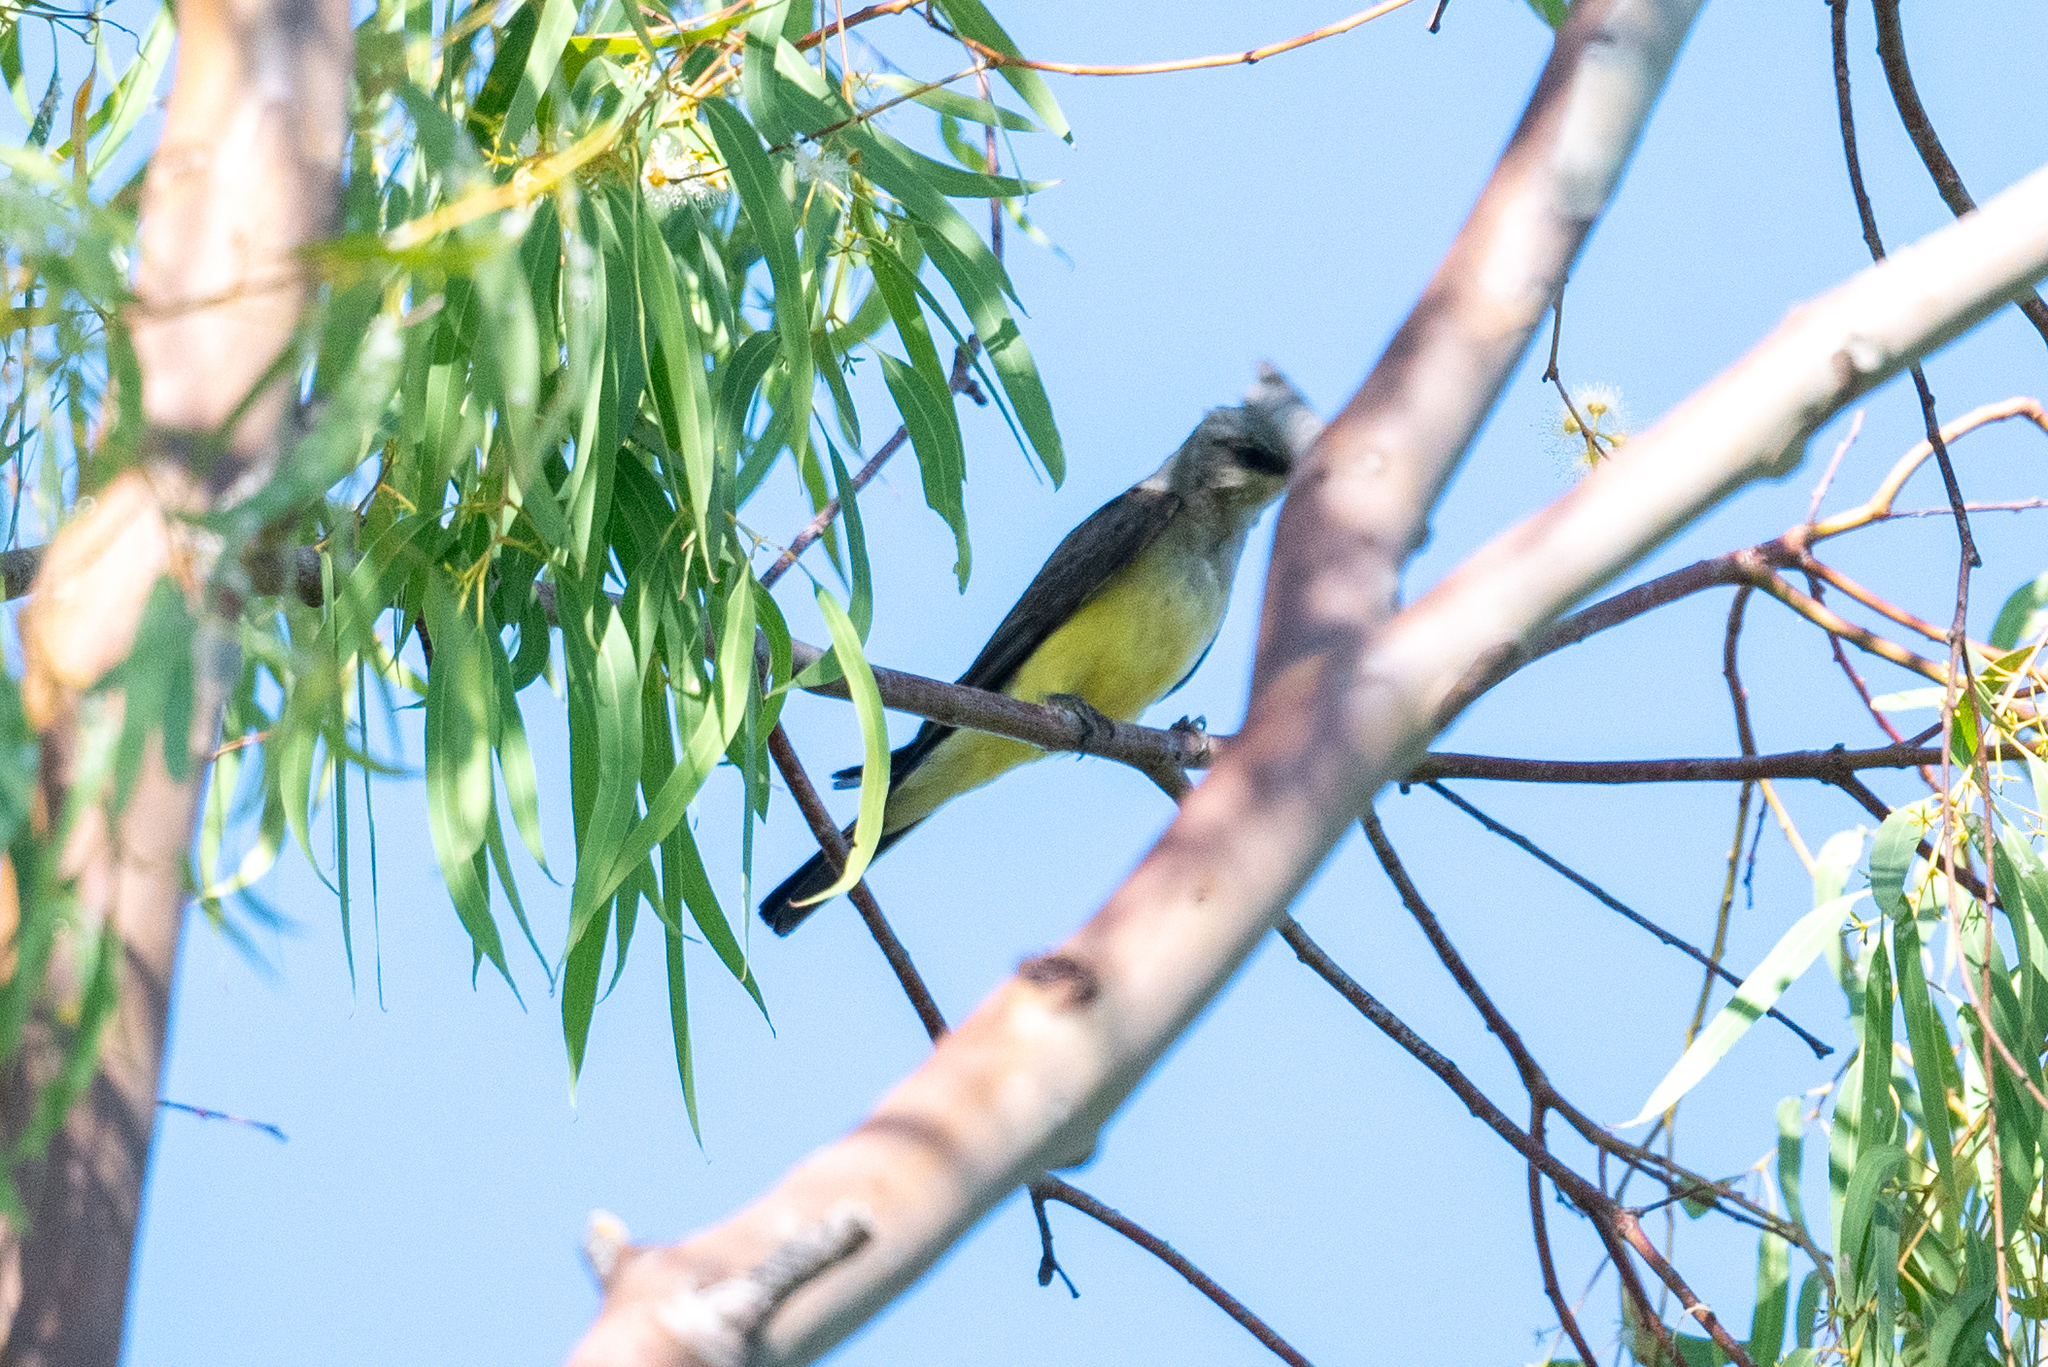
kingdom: Animalia
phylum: Chordata
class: Aves
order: Passeriformes
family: Tyrannidae
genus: Tyrannus
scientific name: Tyrannus verticalis
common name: Western kingbird
